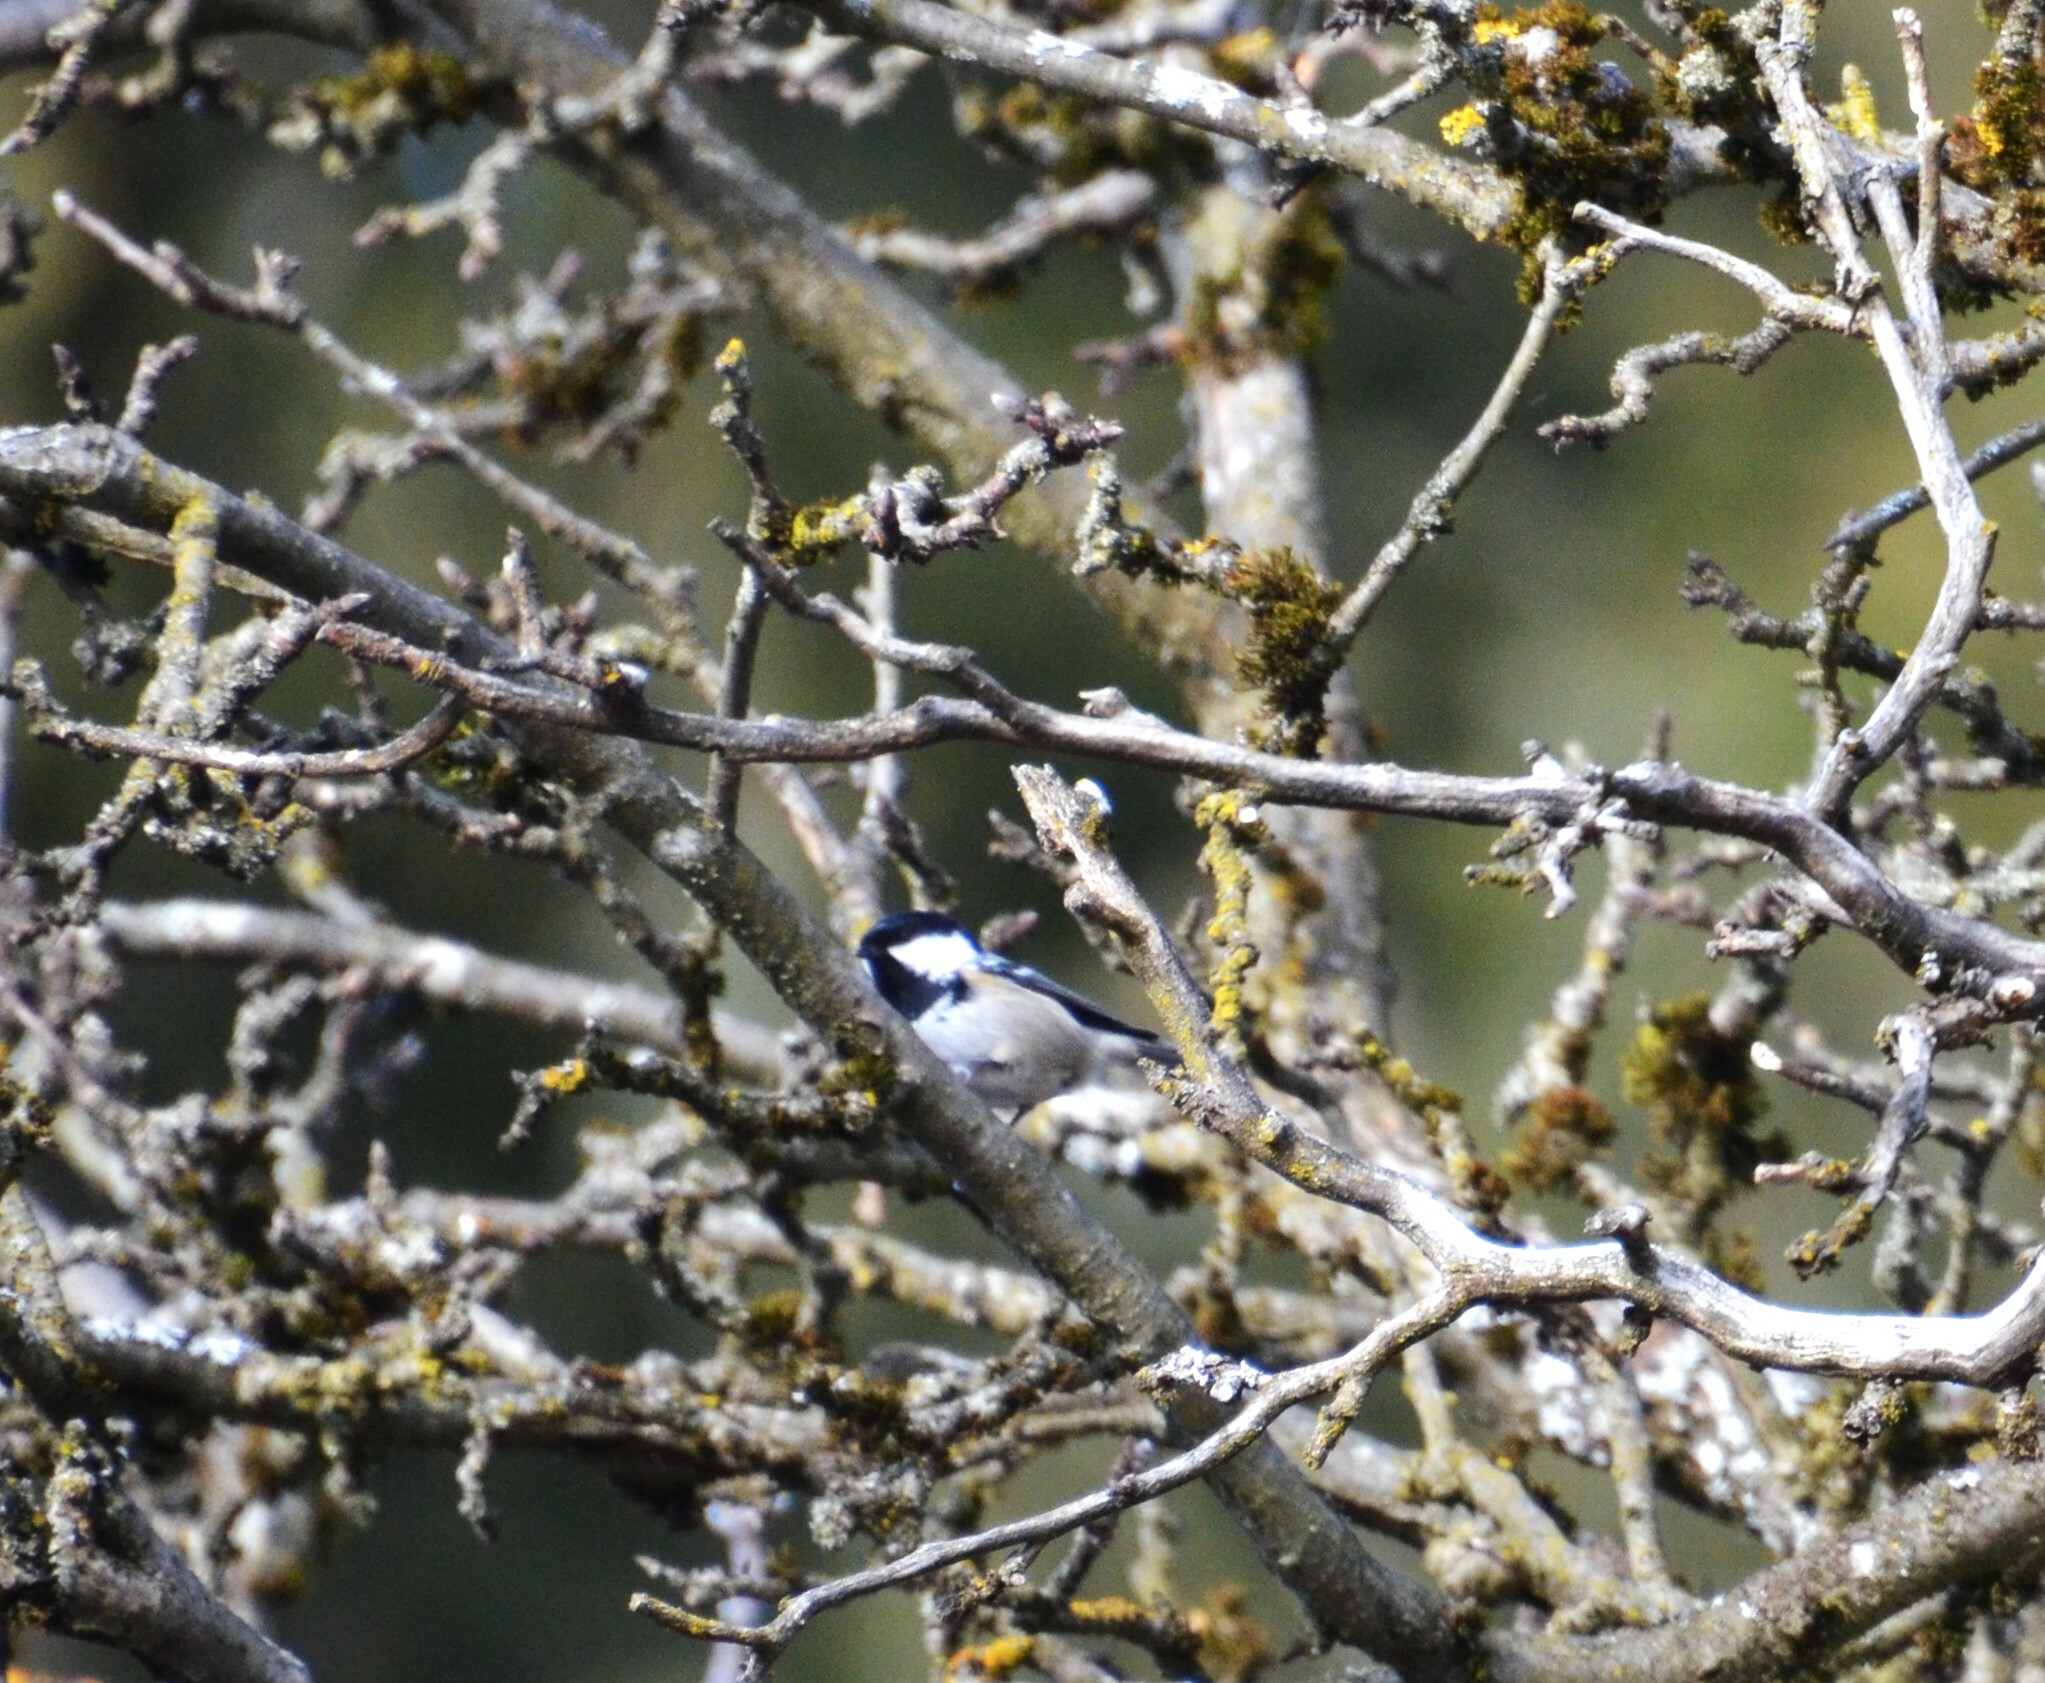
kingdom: Animalia
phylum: Chordata
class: Aves
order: Passeriformes
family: Paridae
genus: Periparus
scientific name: Periparus ater
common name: Coal tit
